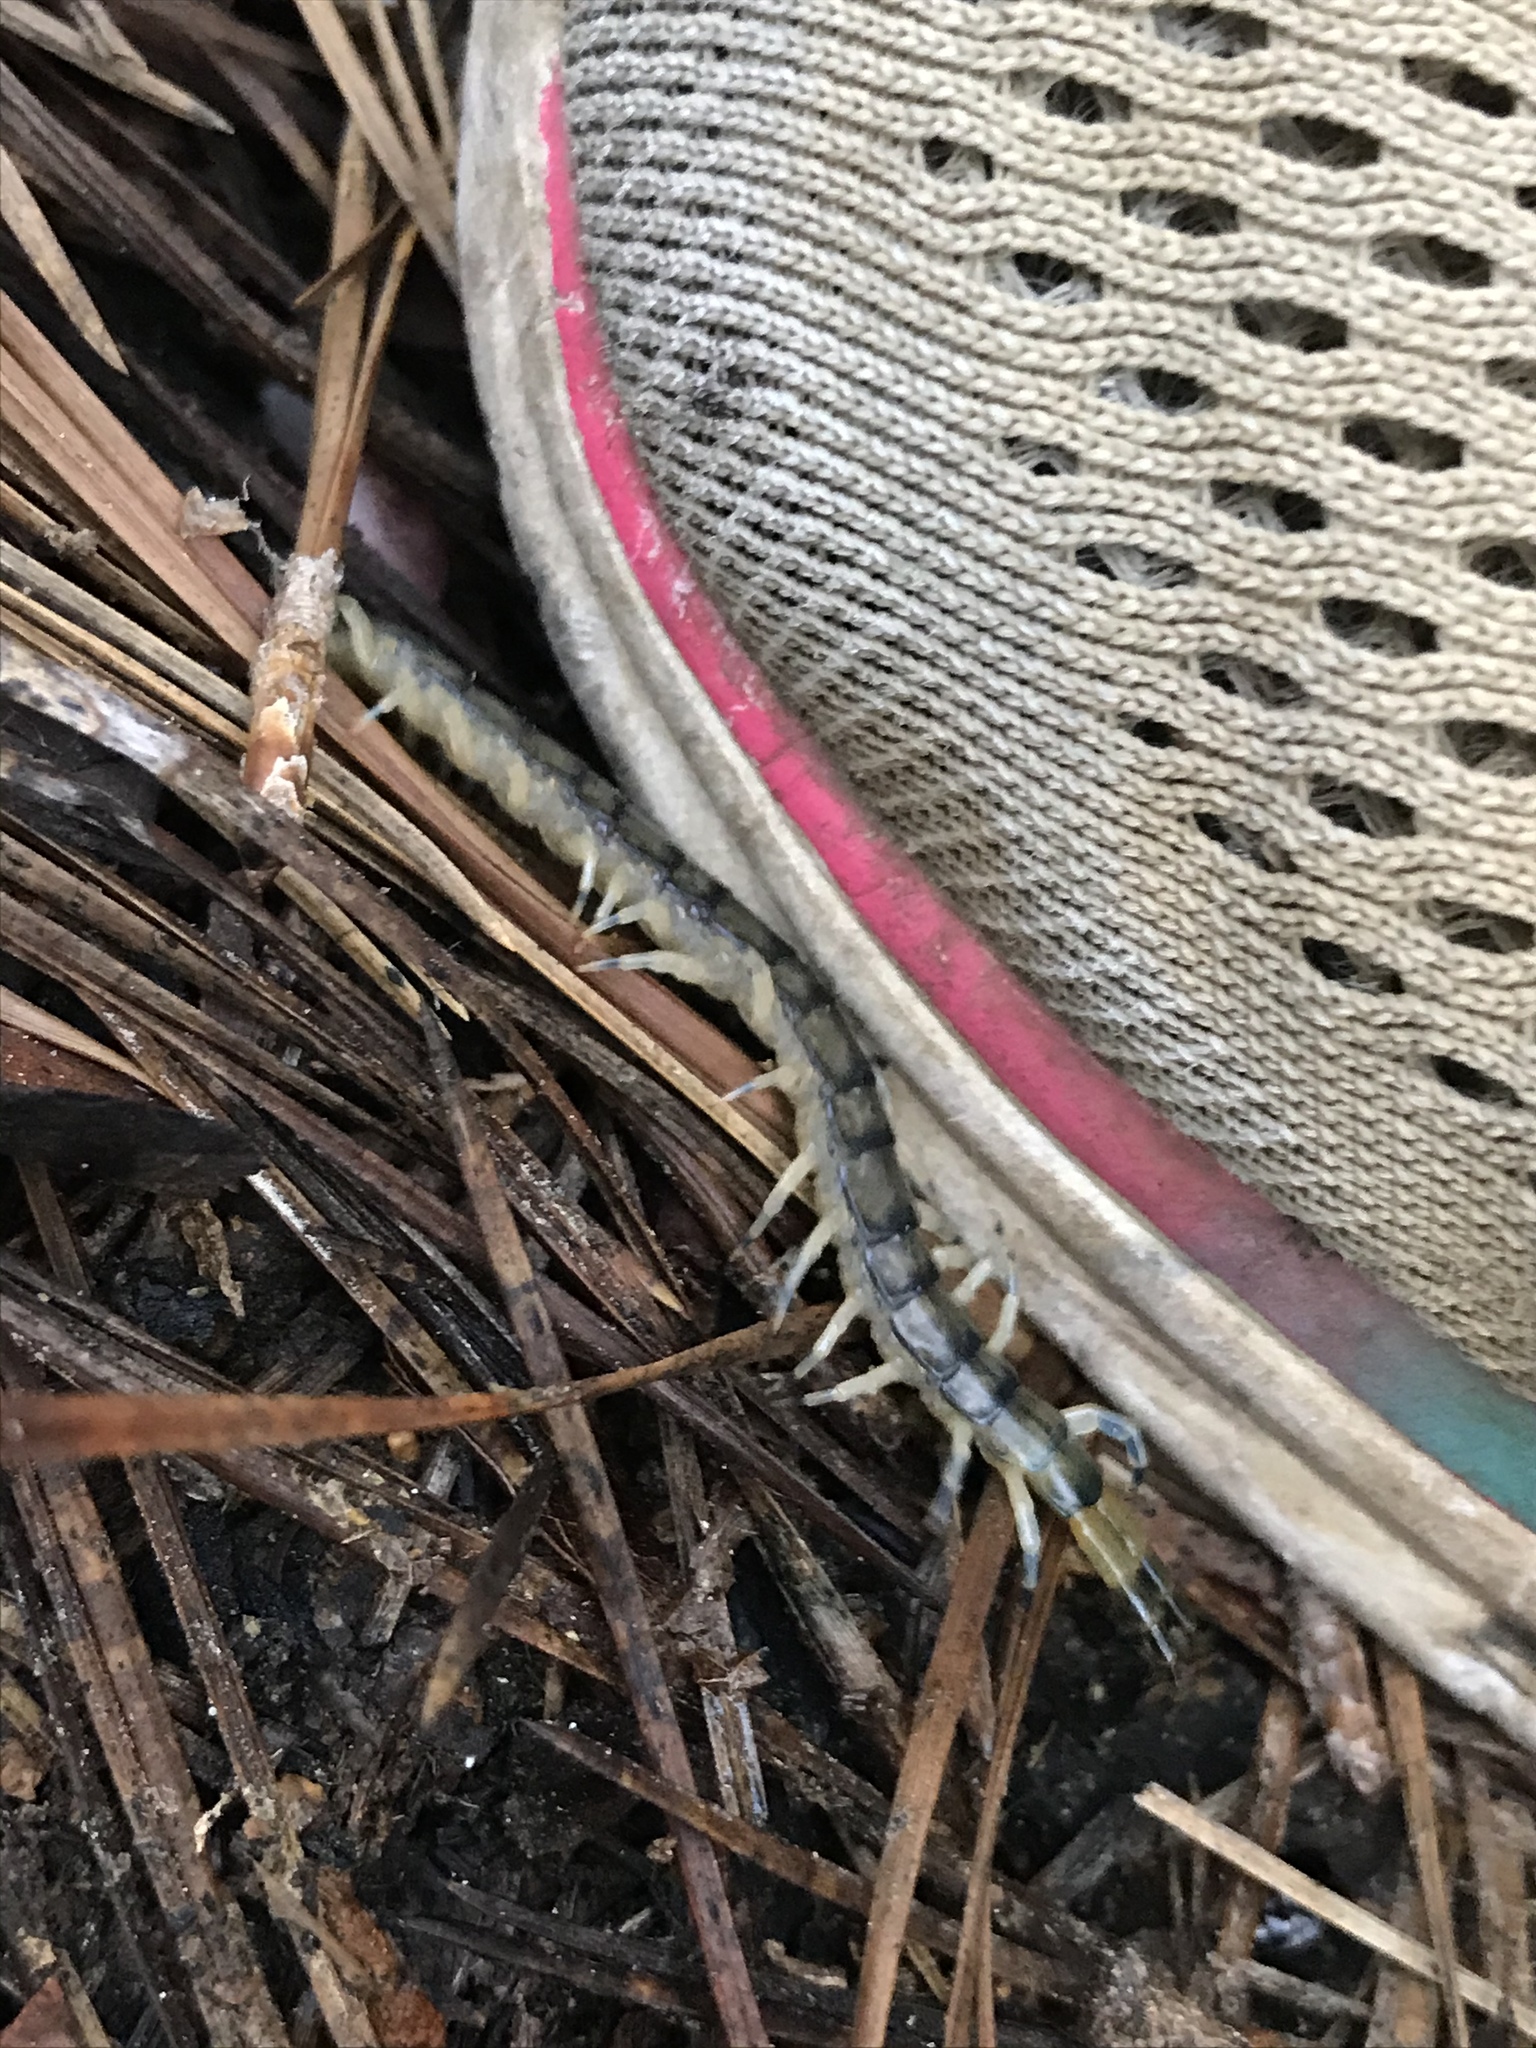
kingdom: Animalia
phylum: Arthropoda
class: Chilopoda
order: Scolopendromorpha
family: Scolopendridae
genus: Hemiscolopendra
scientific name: Hemiscolopendra marginata
